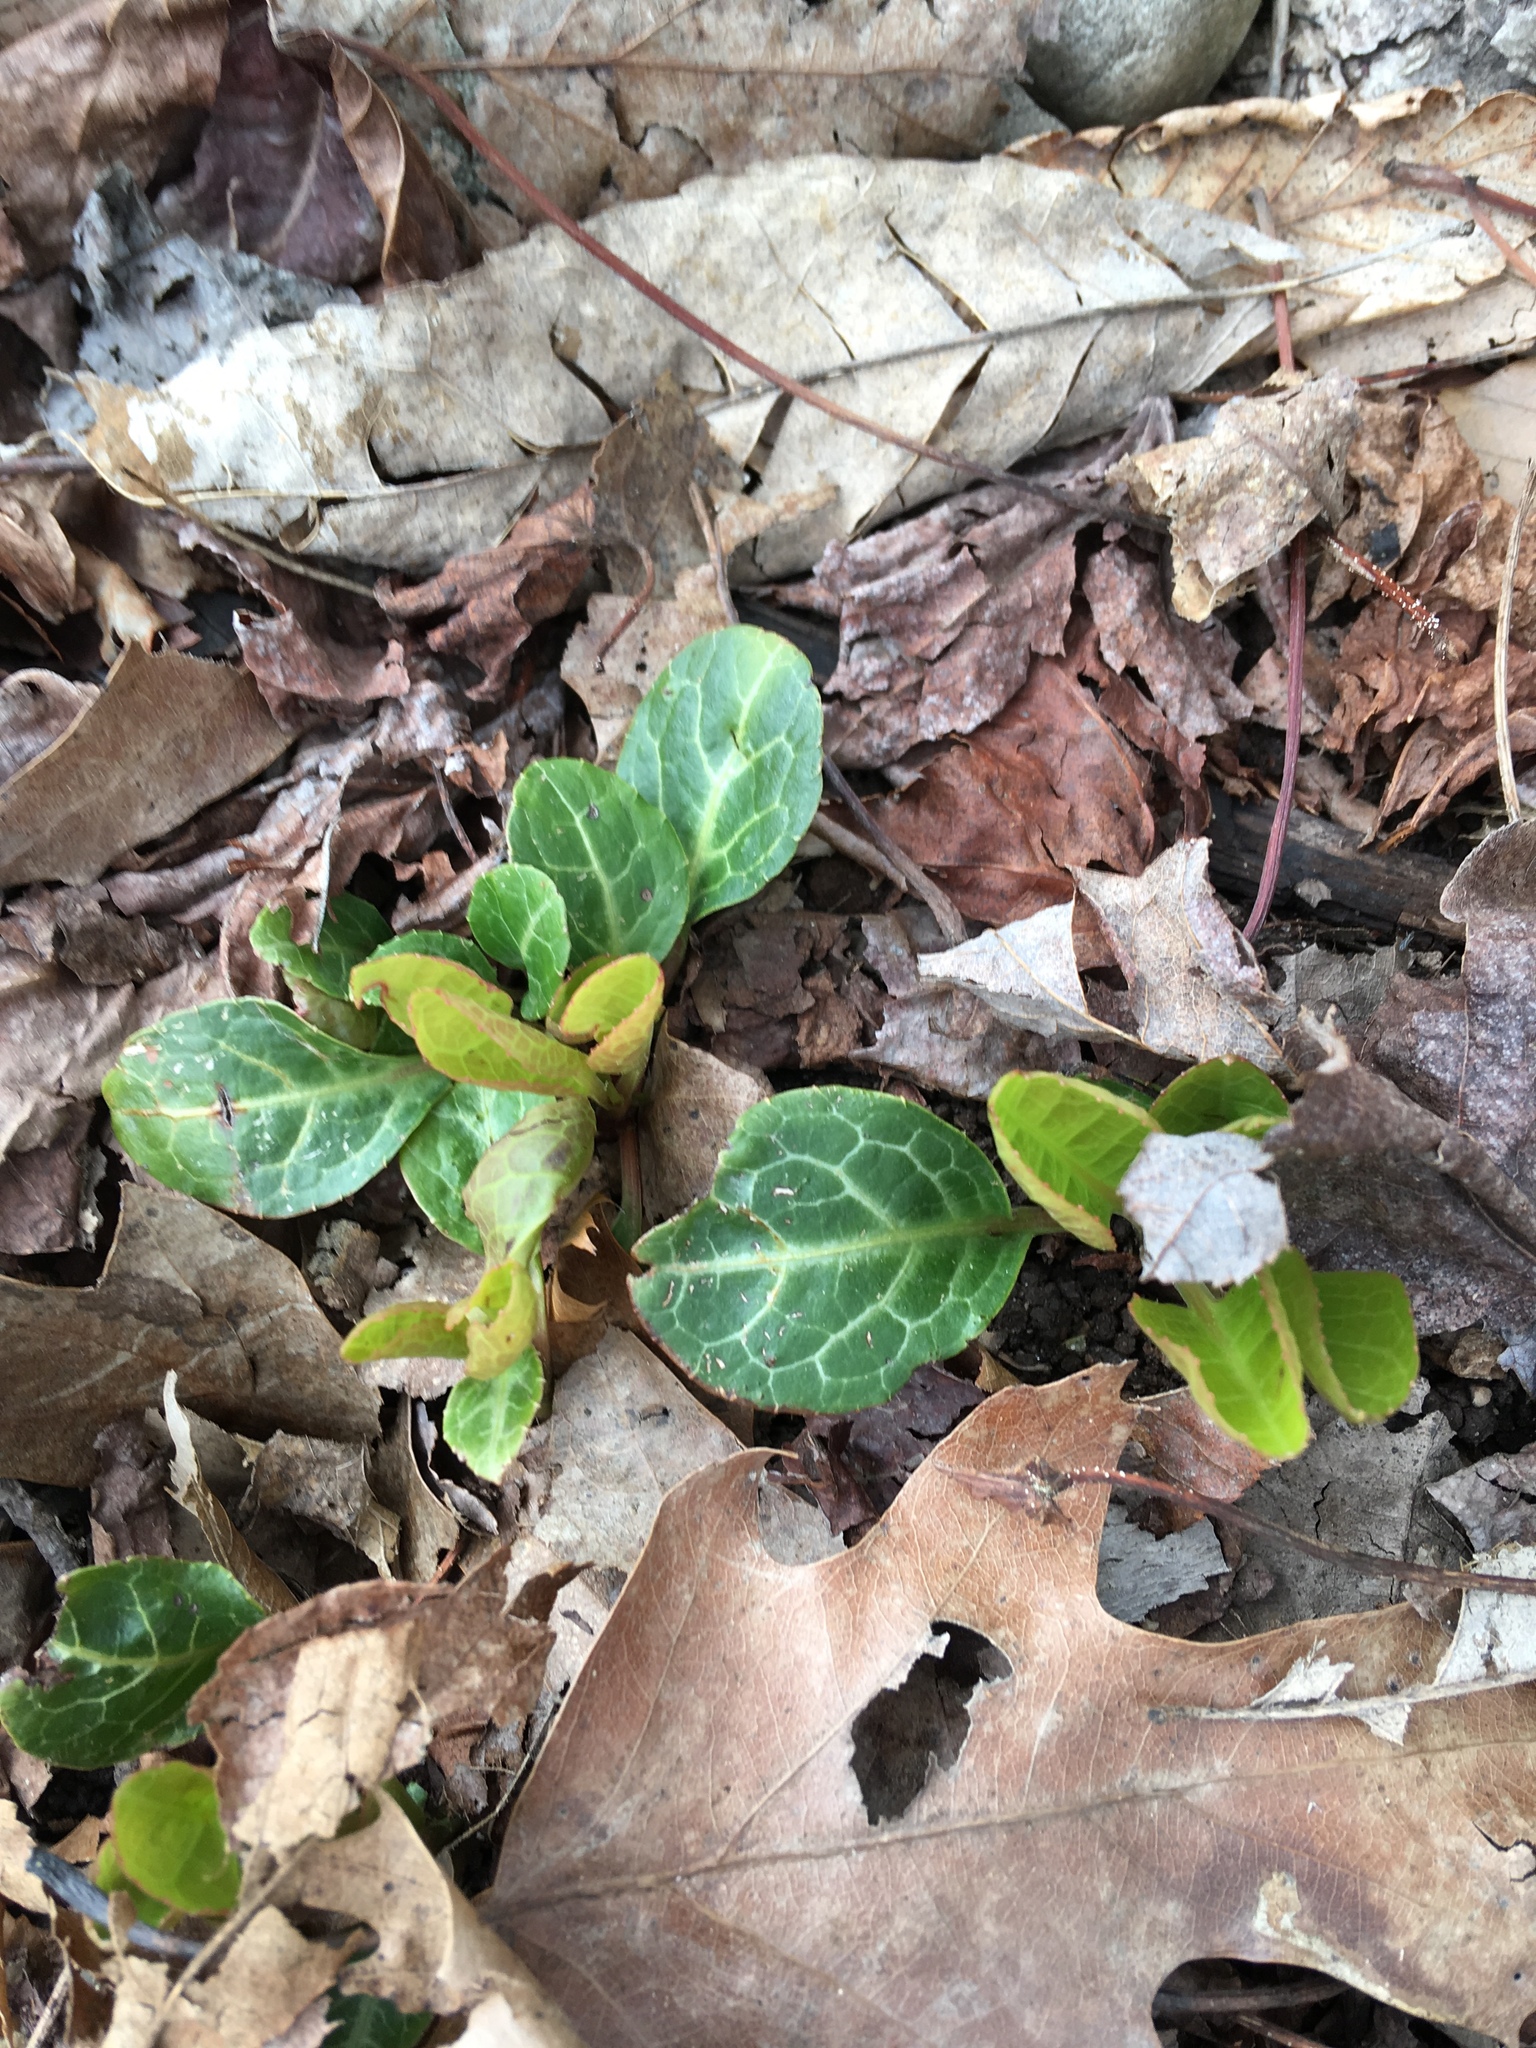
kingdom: Plantae
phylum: Tracheophyta
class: Magnoliopsida
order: Ericales
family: Ericaceae
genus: Pyrola
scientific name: Pyrola americana
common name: American wintergreen
